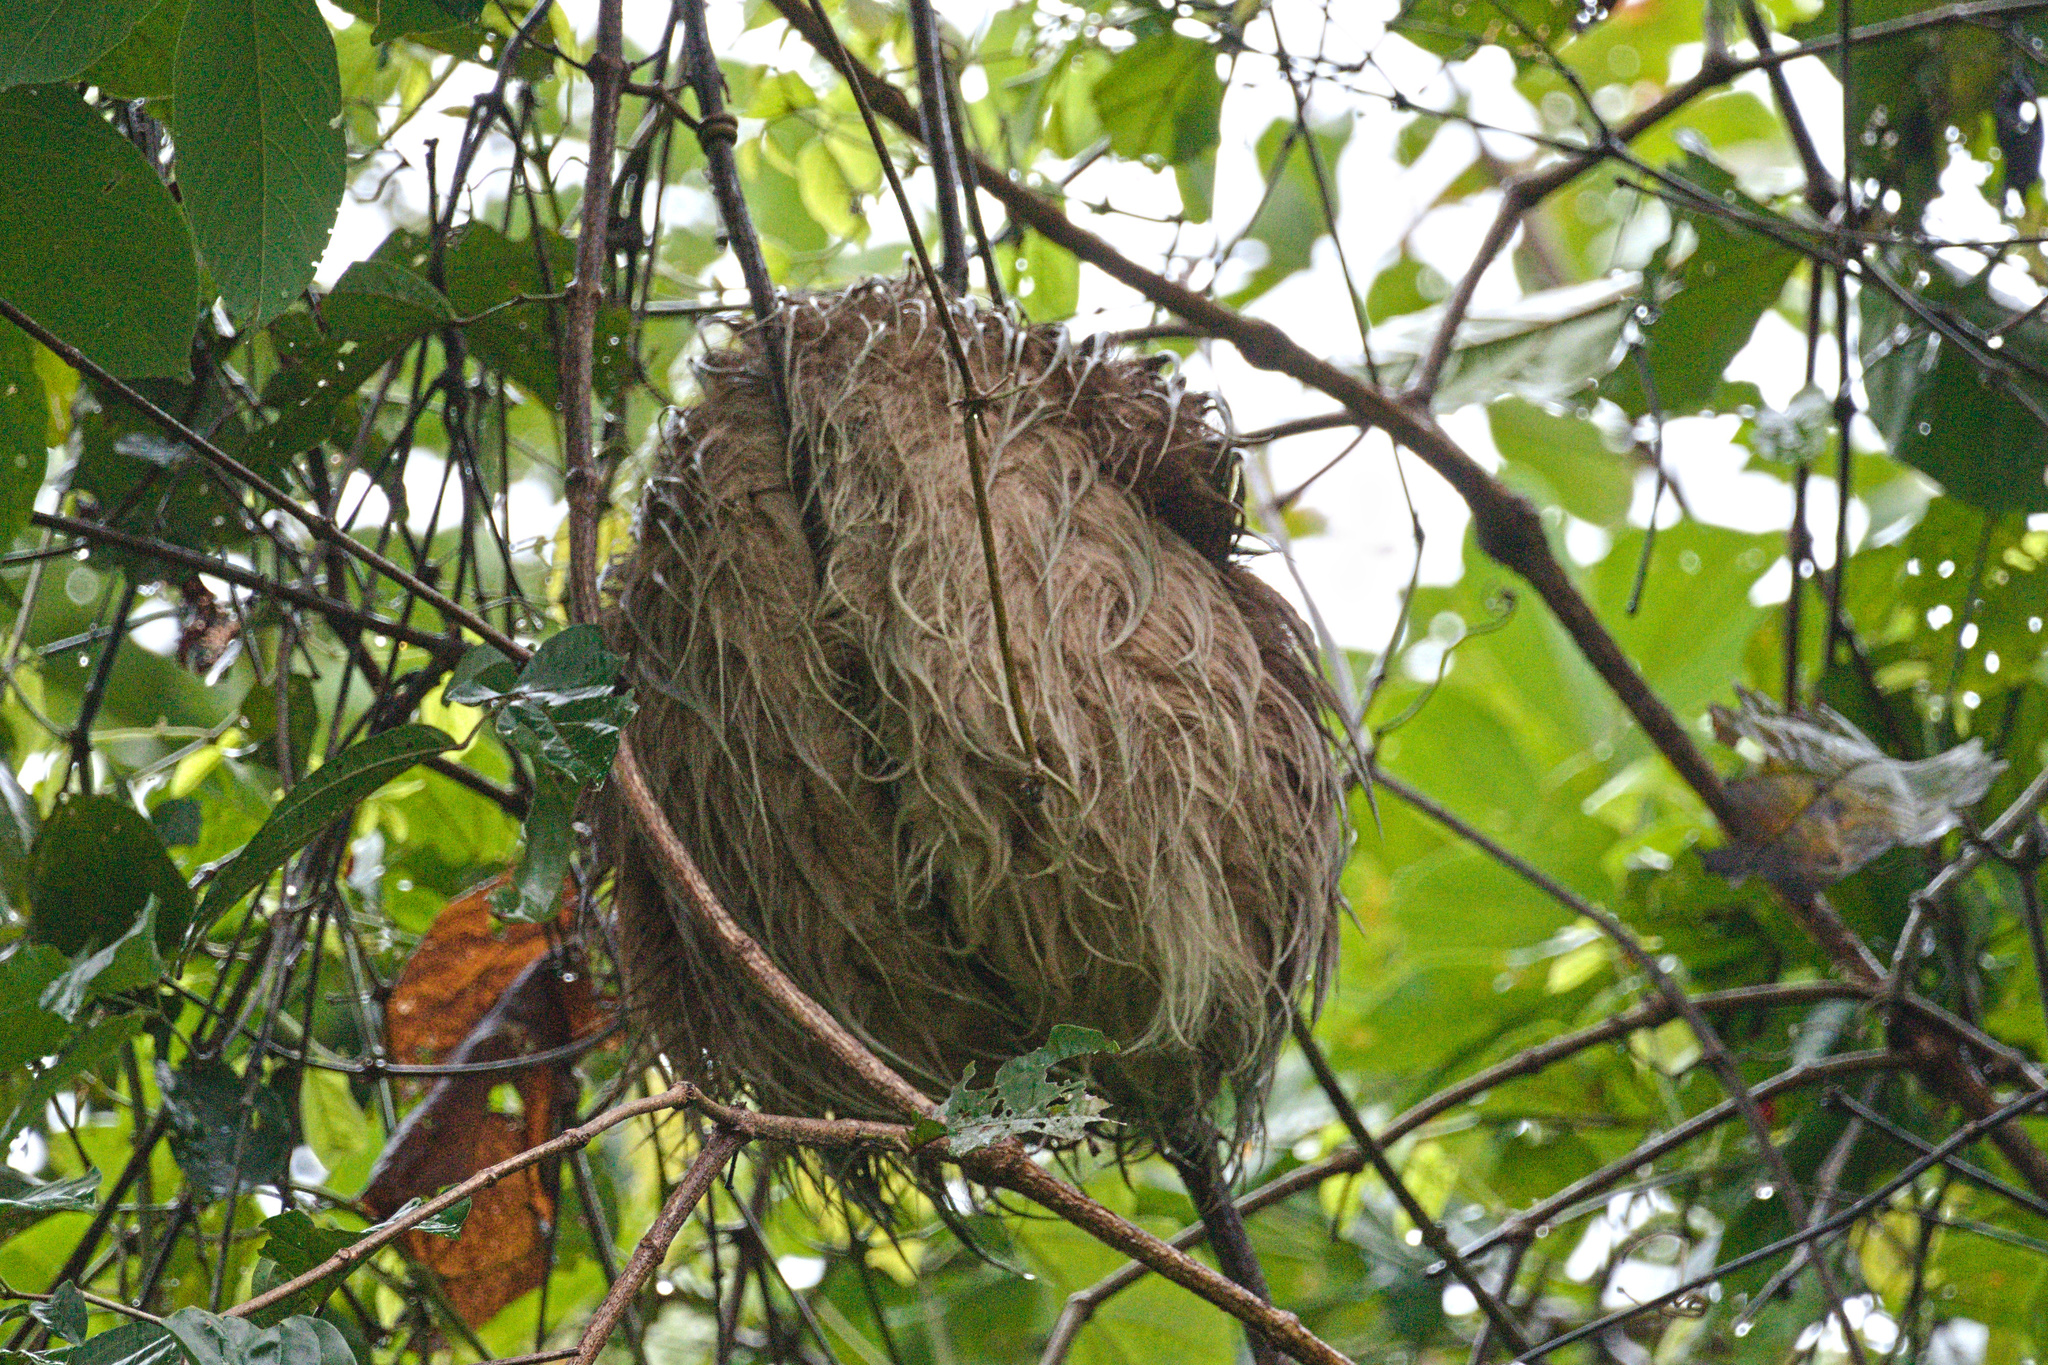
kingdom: Animalia
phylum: Chordata
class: Mammalia
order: Pilosa
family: Megalonychidae
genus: Choloepus
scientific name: Choloepus hoffmanni
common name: Hoffmann's two-toed sloth
